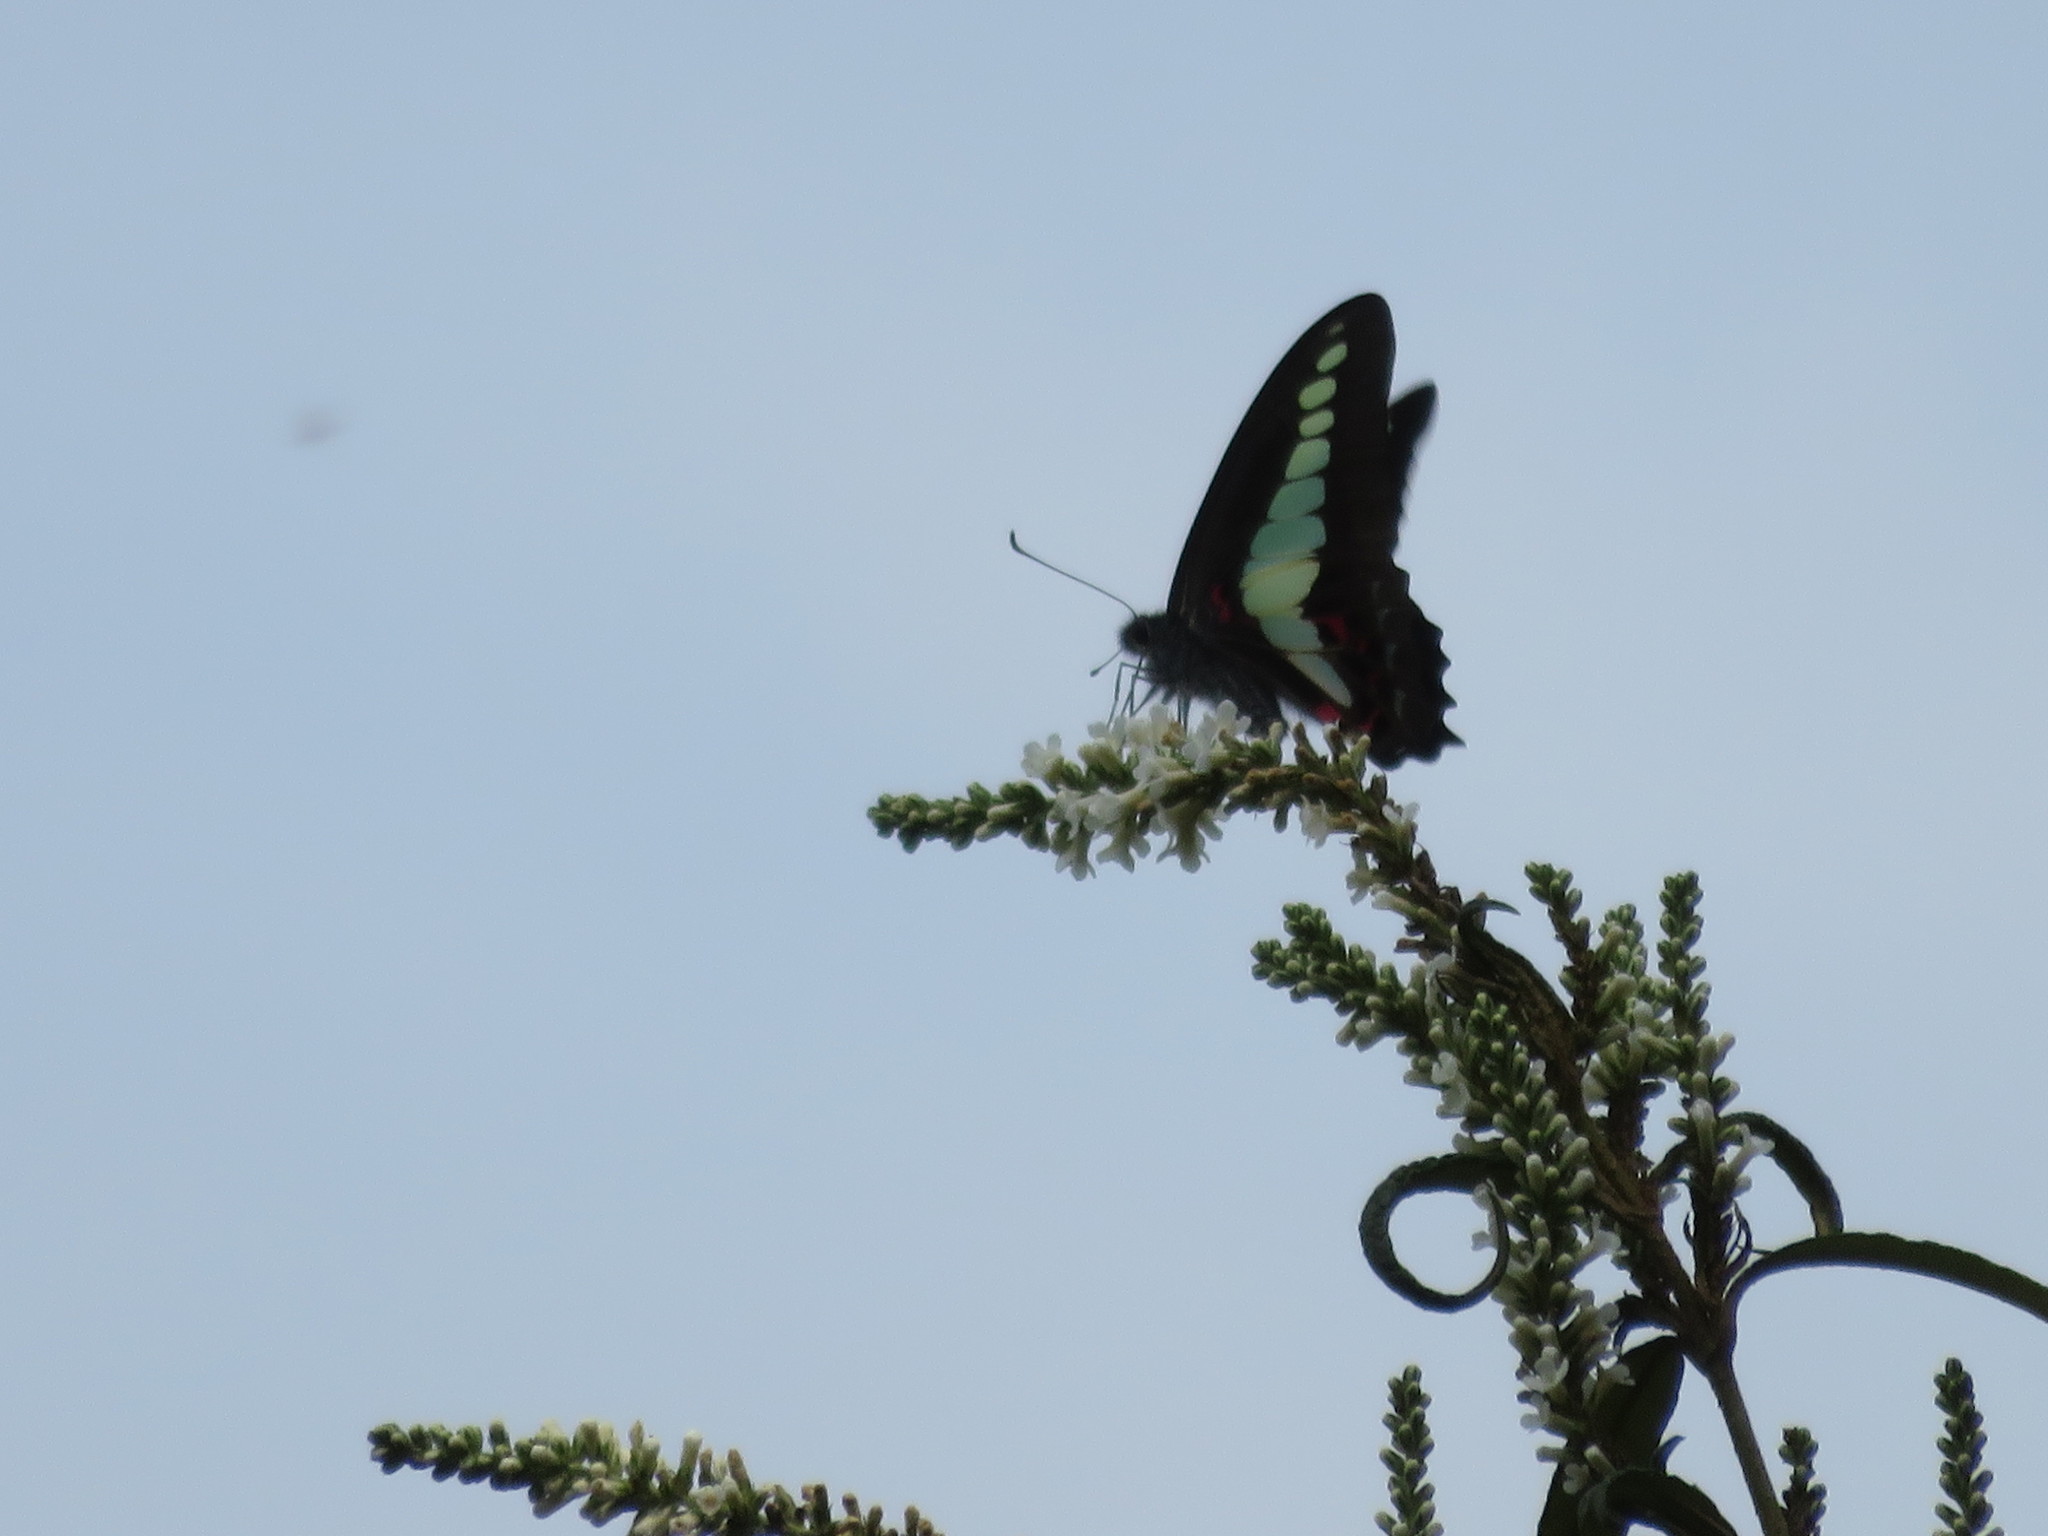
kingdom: Fungi
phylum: Ascomycota
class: Sordariomycetes
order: Microascales
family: Microascaceae
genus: Graphium
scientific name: Graphium sarpedon
